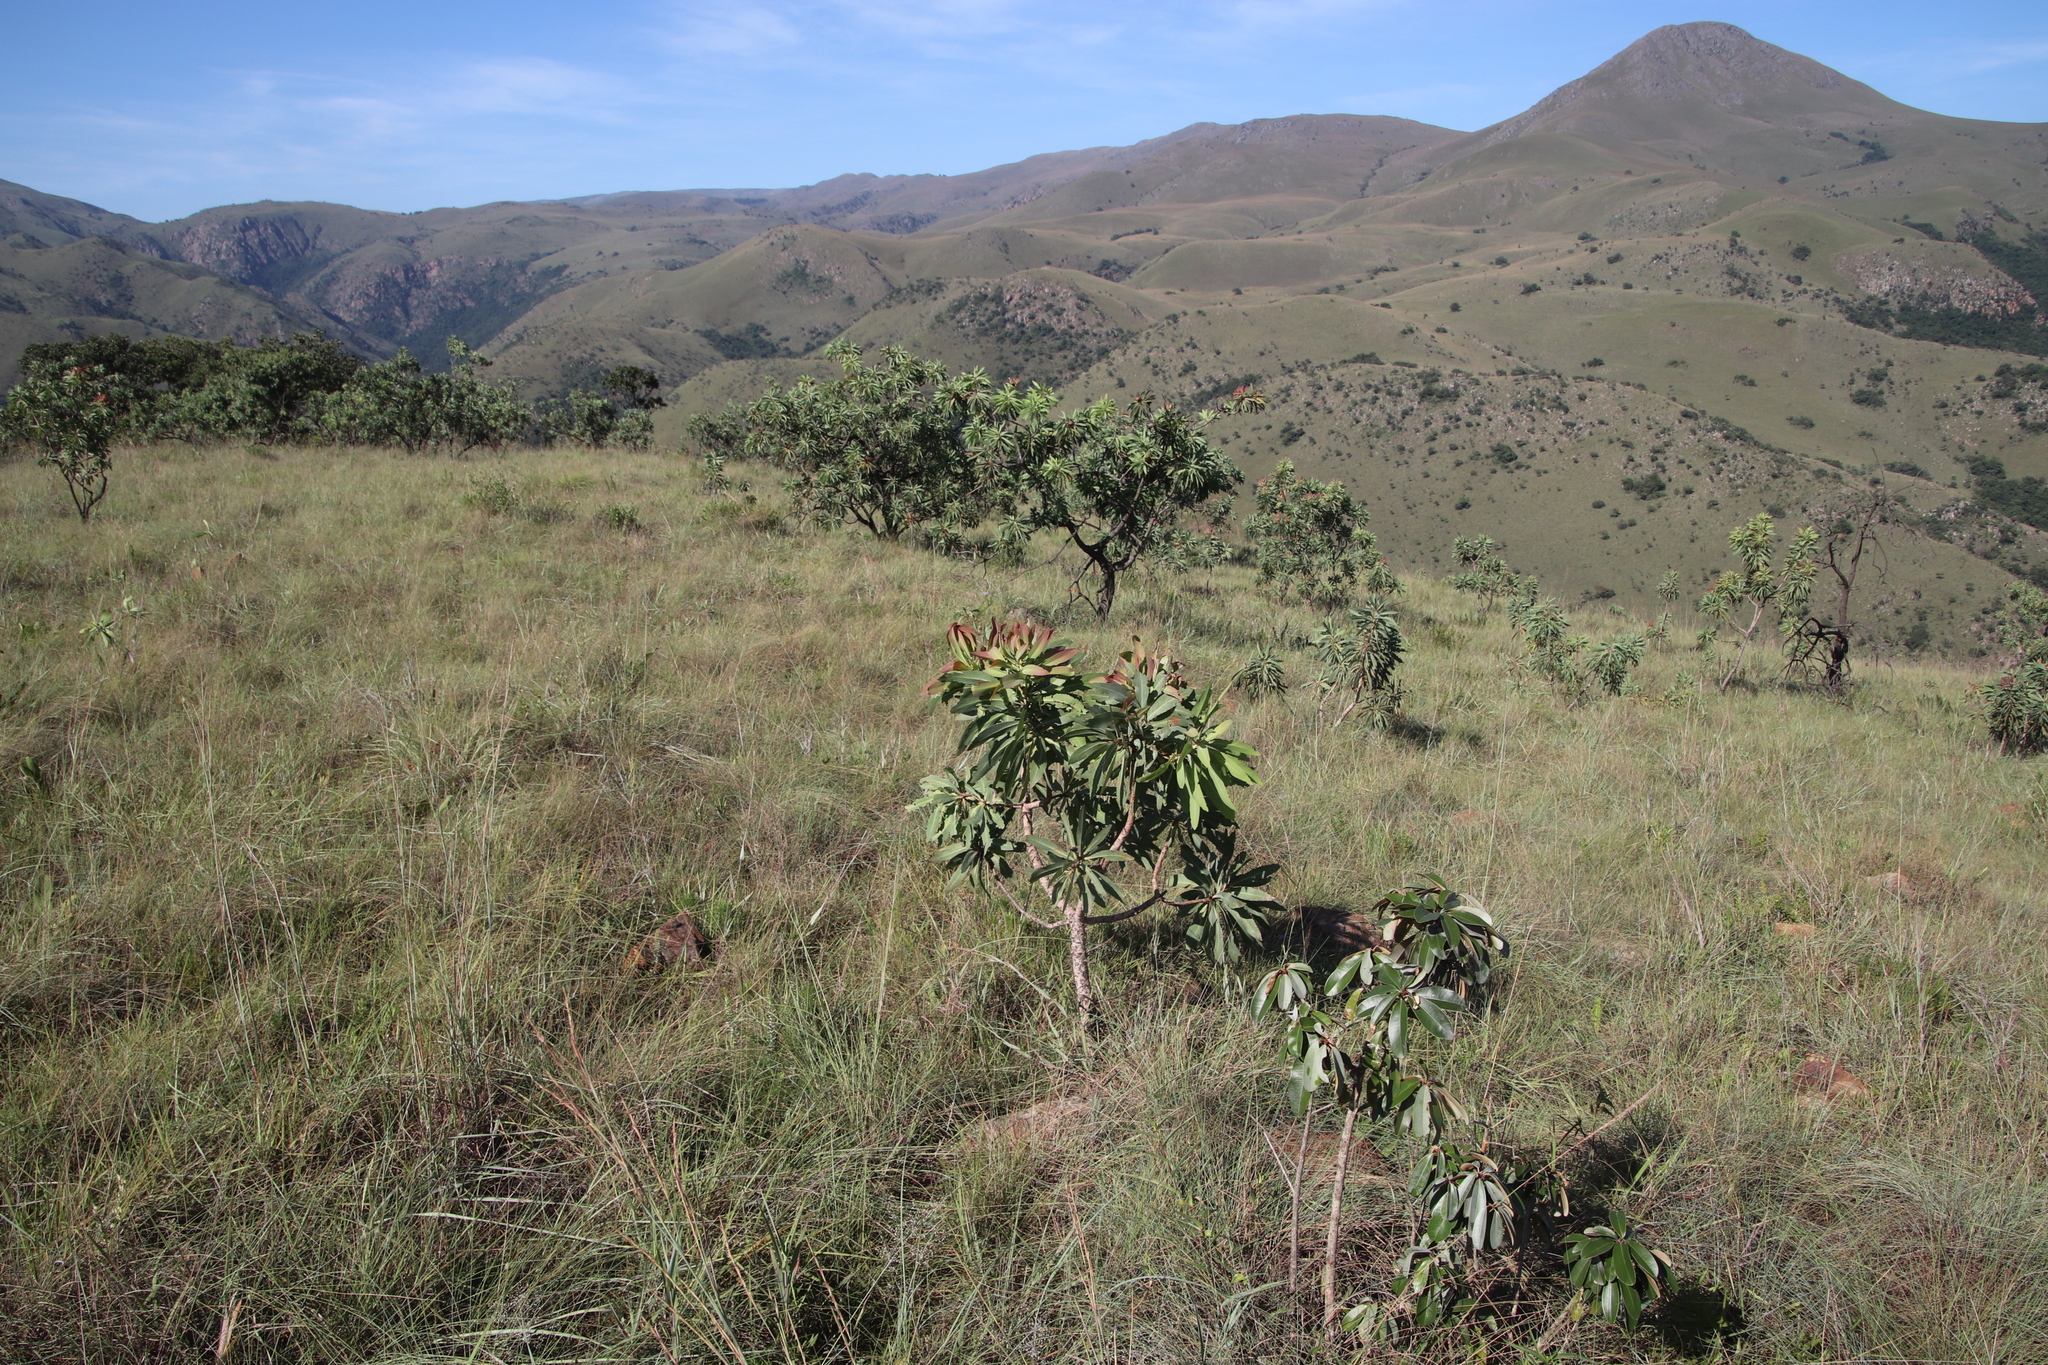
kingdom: Plantae
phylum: Tracheophyta
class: Magnoliopsida
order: Proteales
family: Proteaceae
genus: Protea
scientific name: Protea caffra
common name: Common sugarbush
